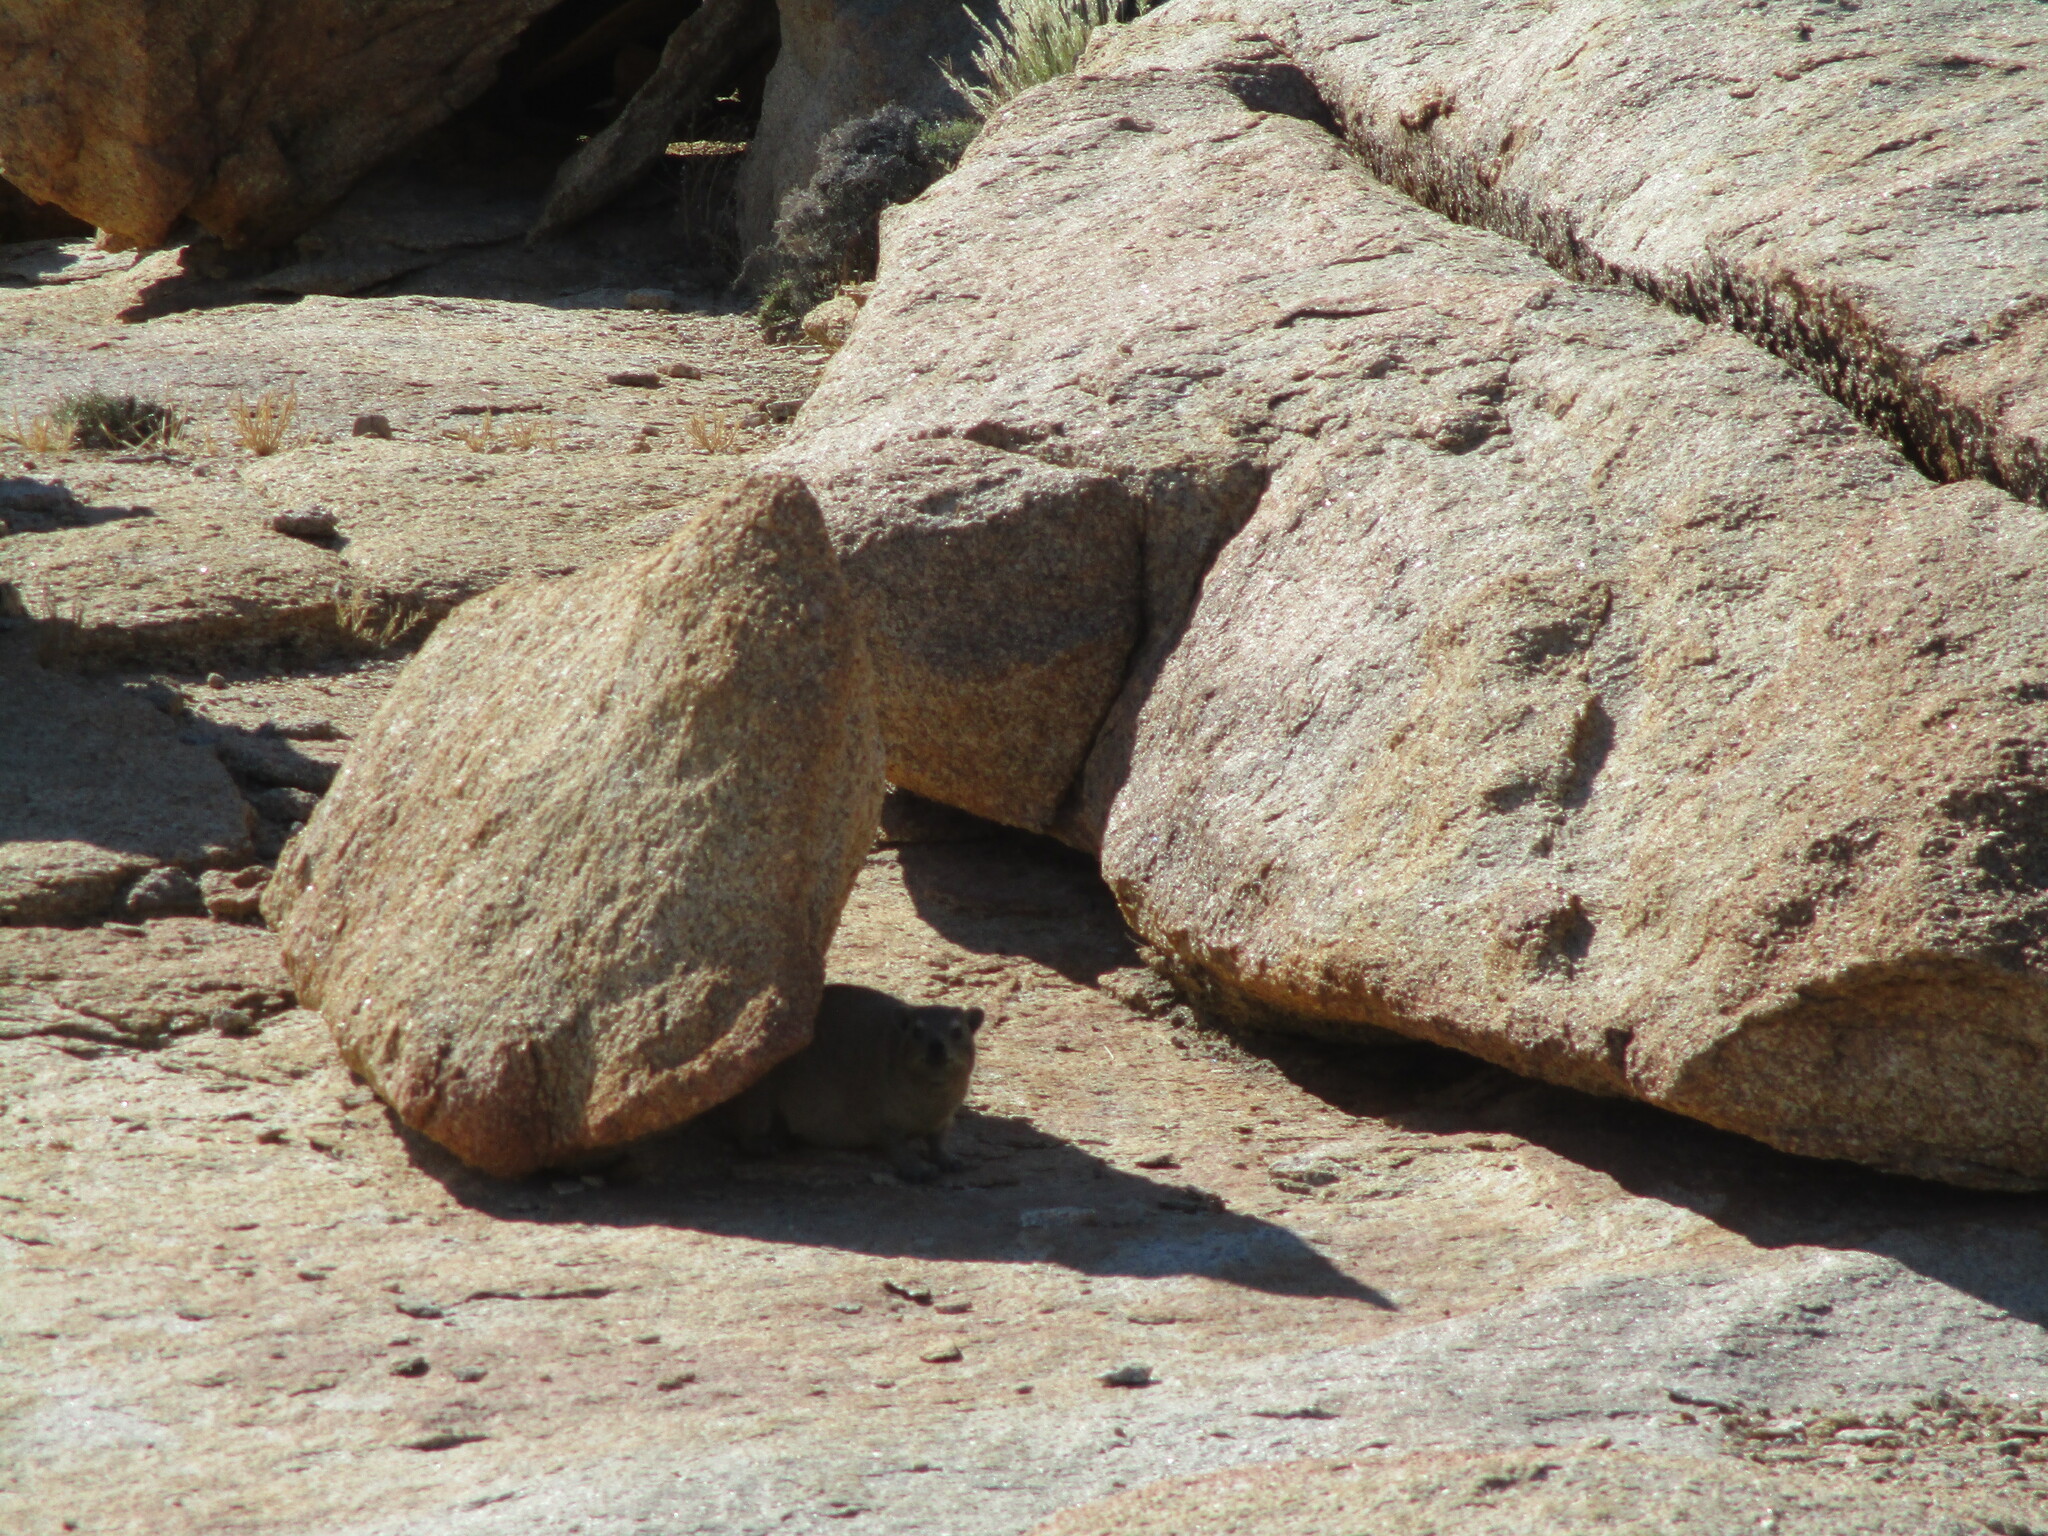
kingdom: Animalia
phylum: Chordata
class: Mammalia
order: Hyracoidea
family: Procaviidae
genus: Procavia
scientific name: Procavia capensis
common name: Rock hyrax
